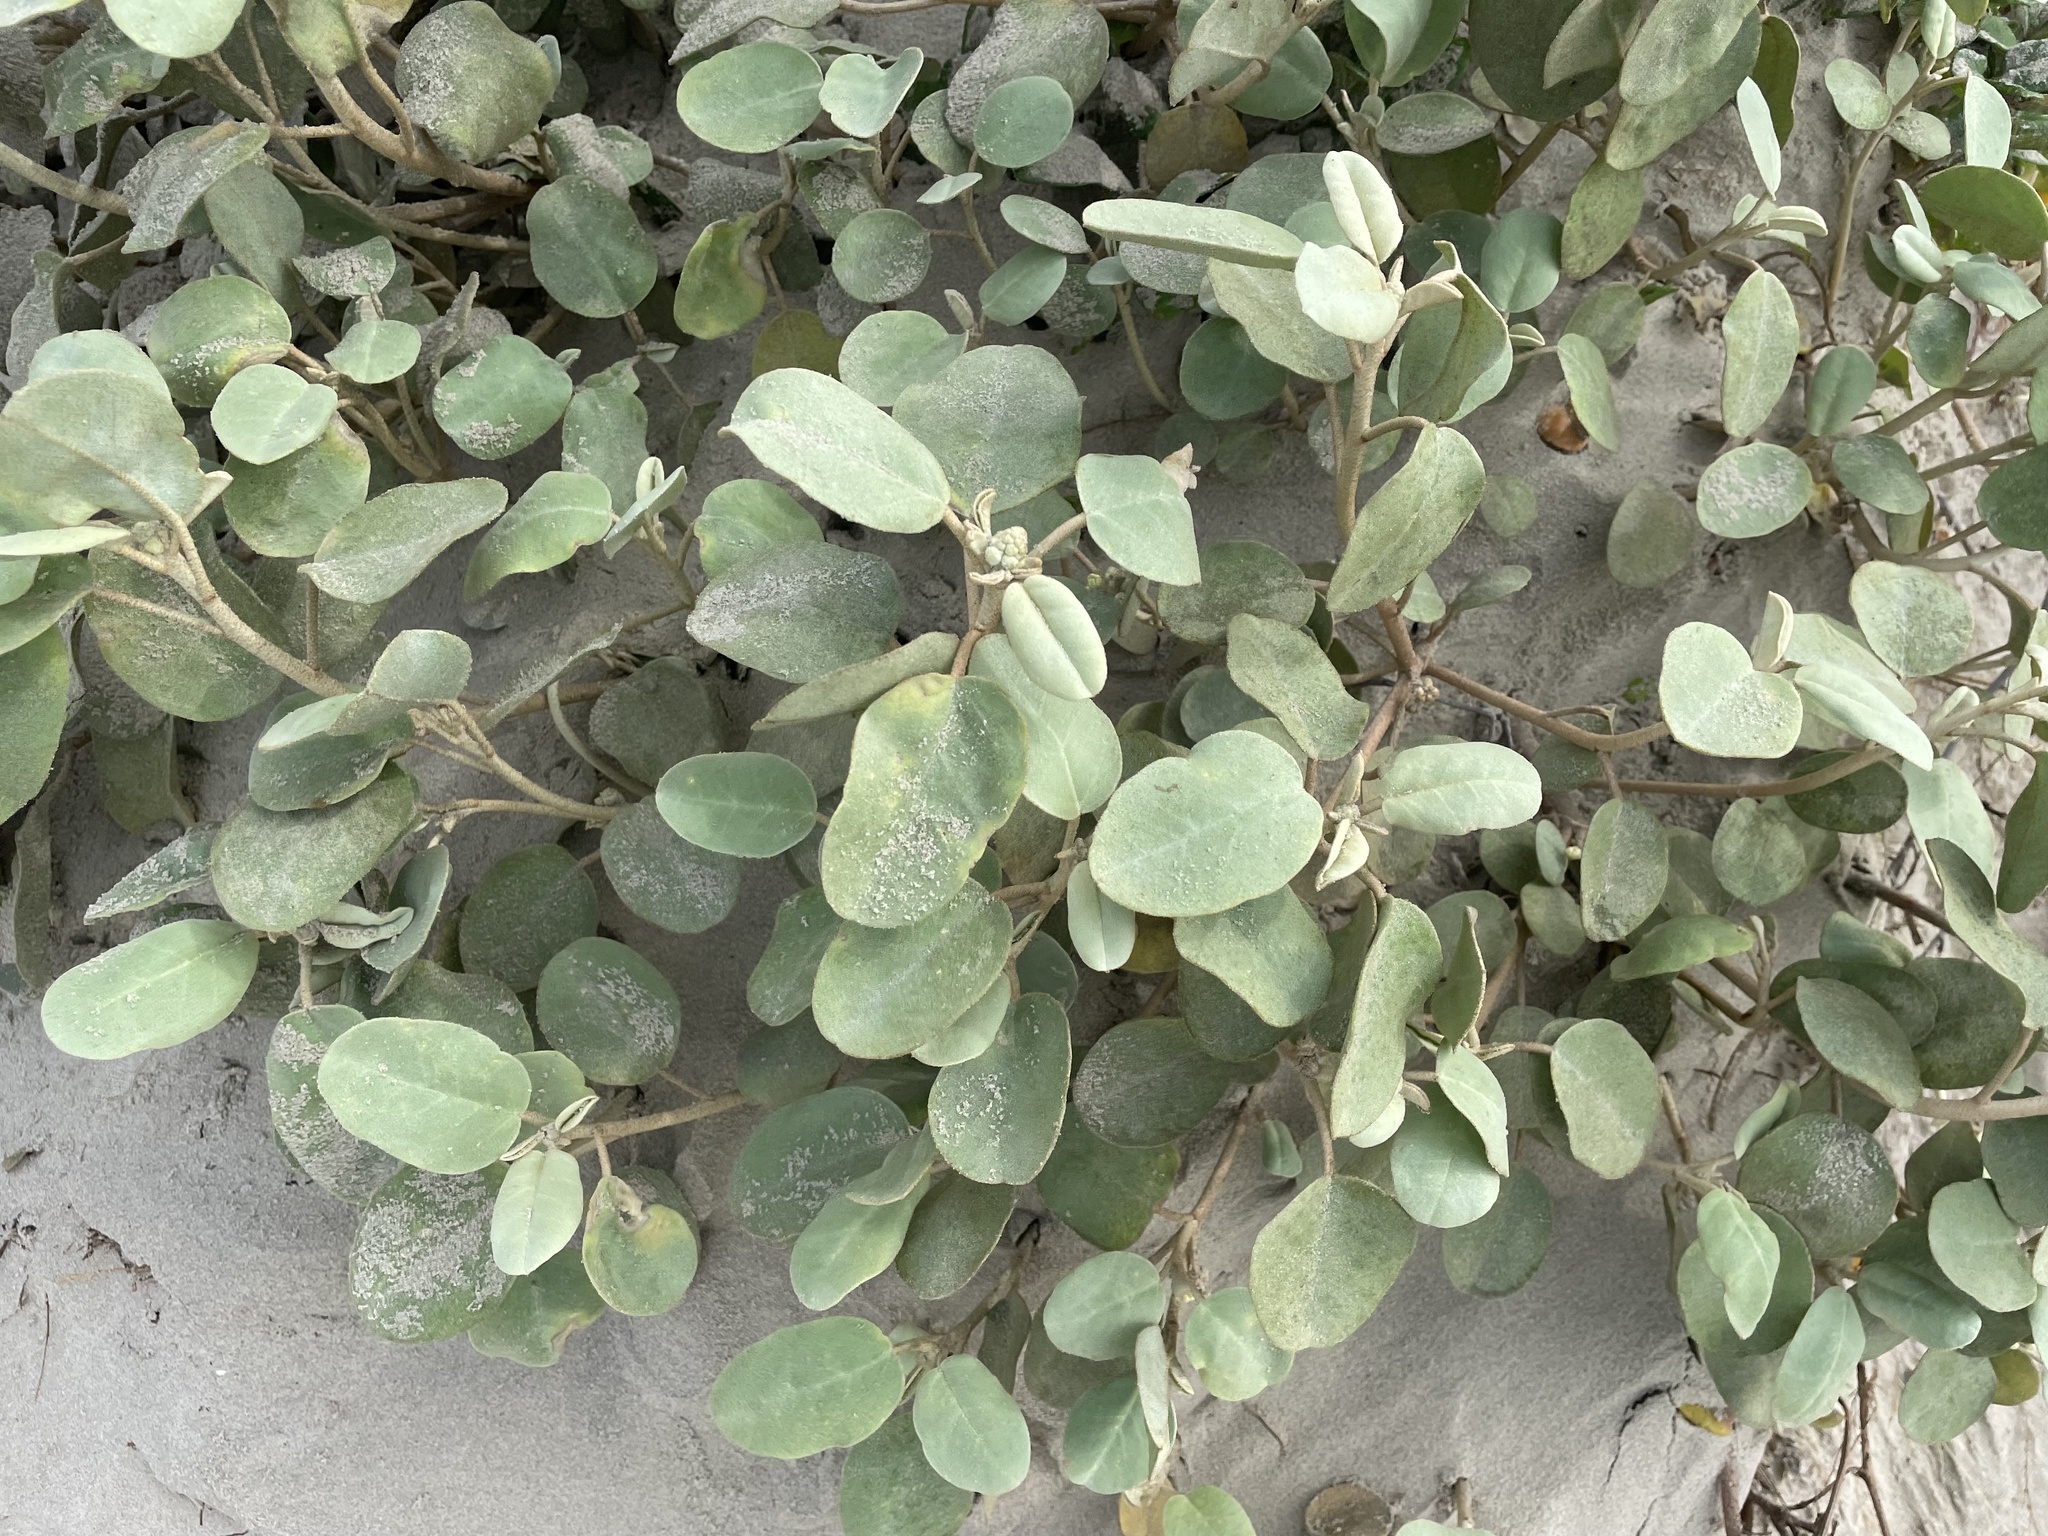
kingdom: Plantae
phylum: Tracheophyta
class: Magnoliopsida
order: Malpighiales
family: Euphorbiaceae
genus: Croton
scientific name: Croton punctatus
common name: Beach-tea
